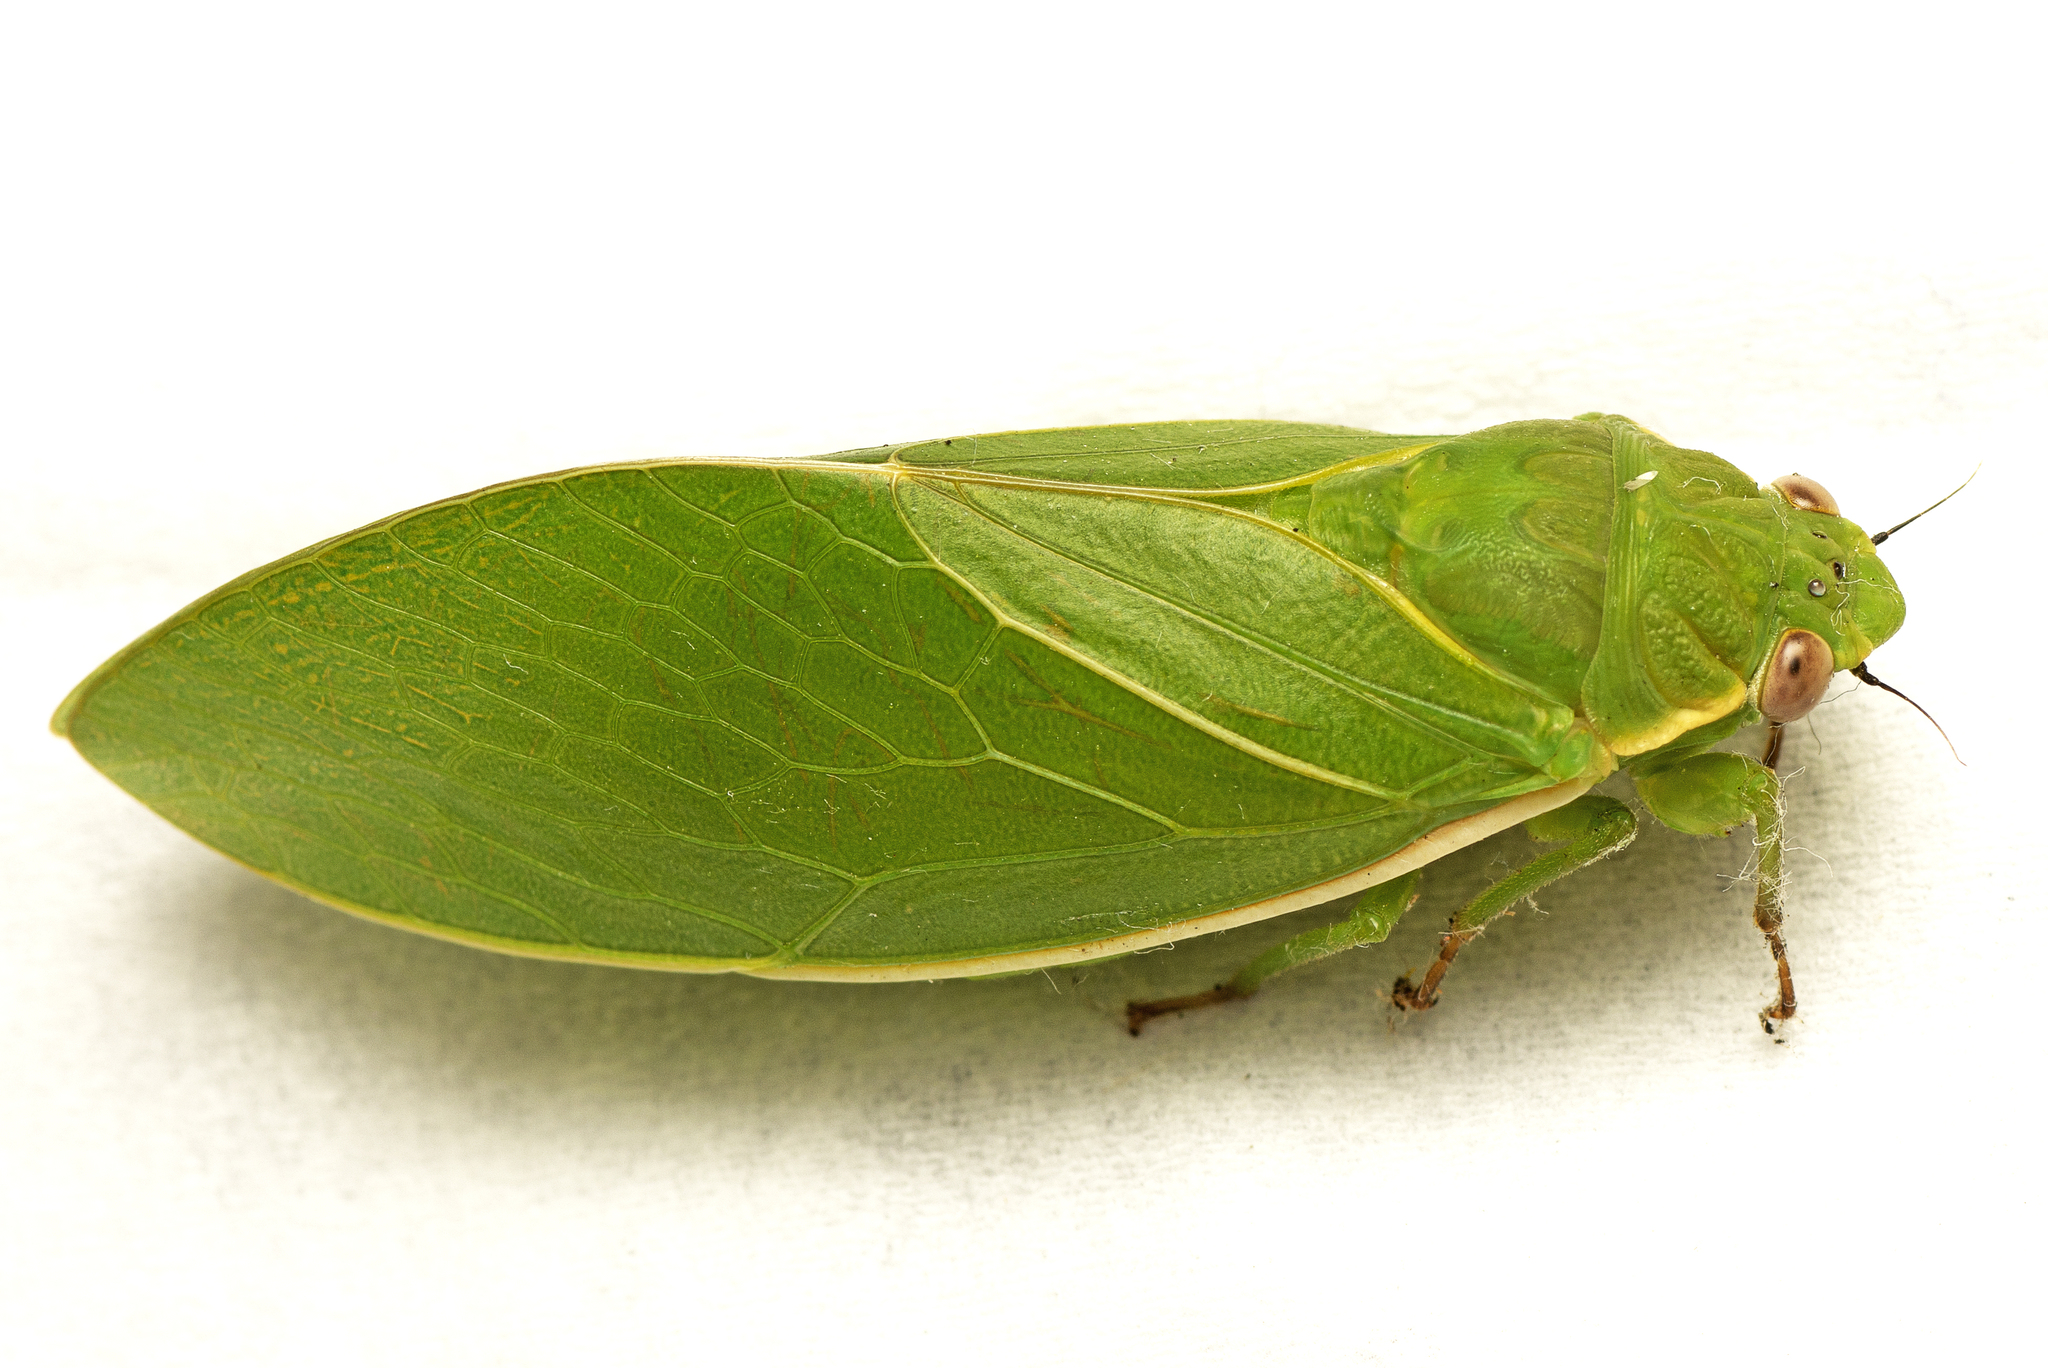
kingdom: Animalia
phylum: Arthropoda
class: Insecta
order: Hemiptera
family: Cicadidae
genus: Cystosoma
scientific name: Cystosoma schmeltzi
